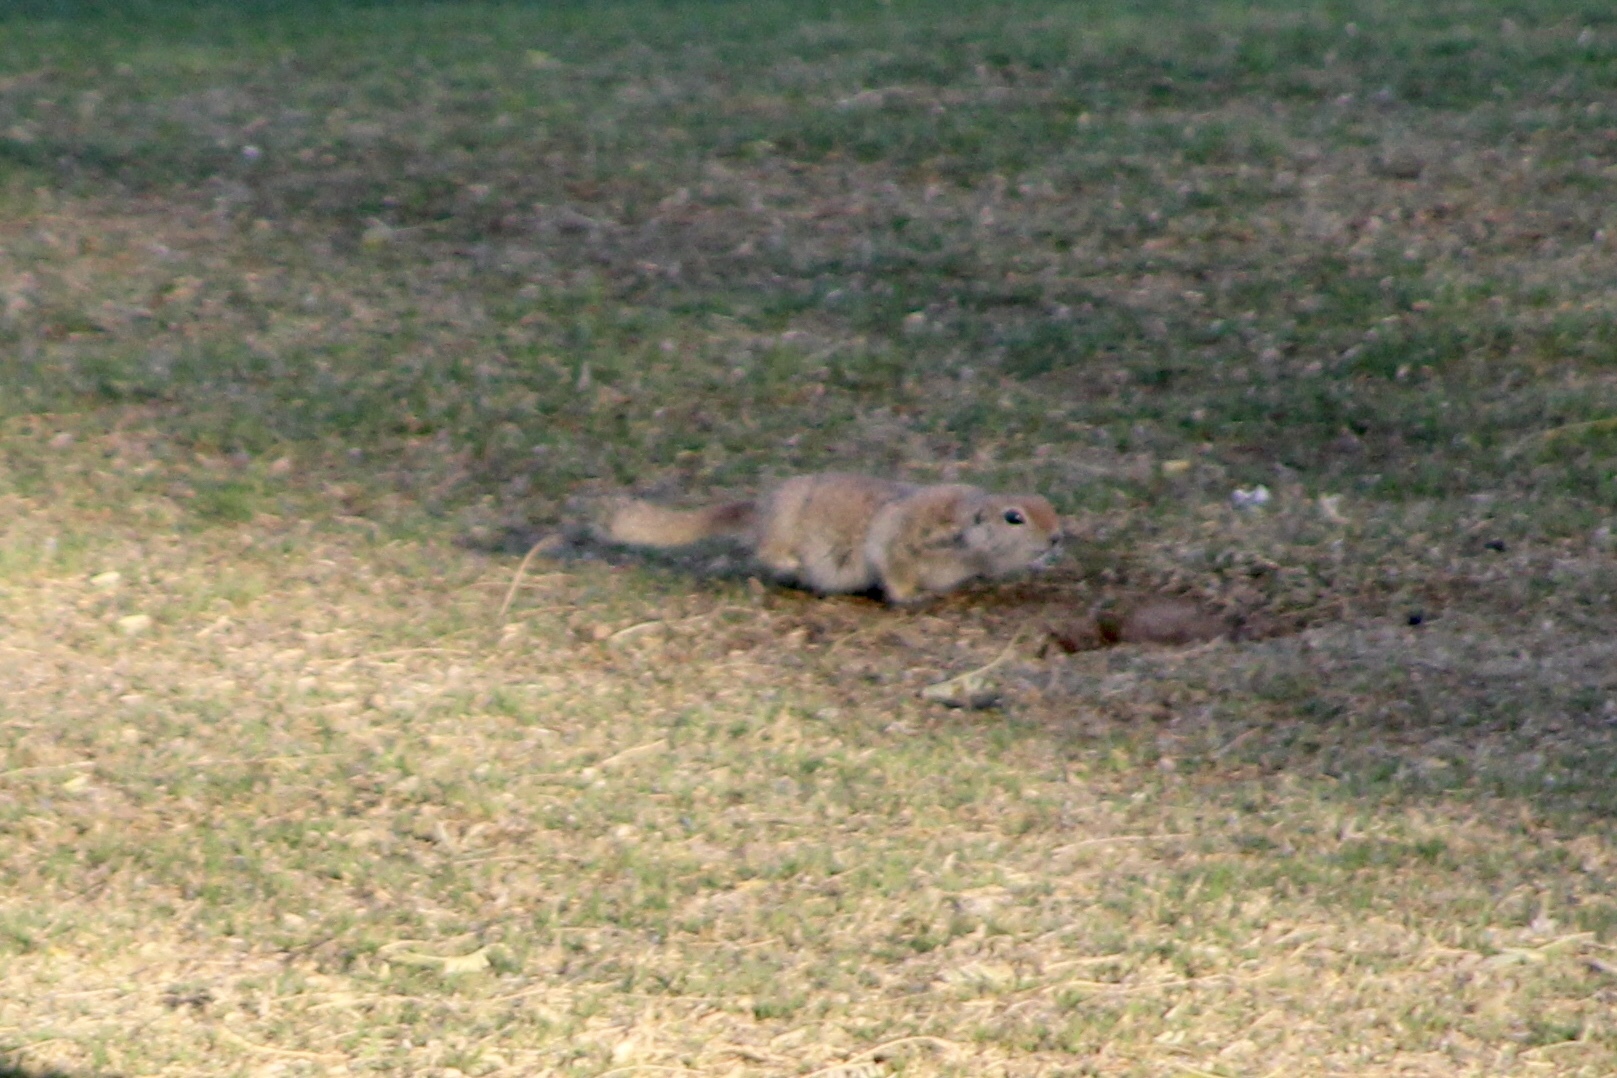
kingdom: Animalia
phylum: Chordata
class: Mammalia
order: Rodentia
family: Sciuridae
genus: Xerospermophilus
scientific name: Xerospermophilus tereticaudus
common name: Round-tailed ground squirrel
